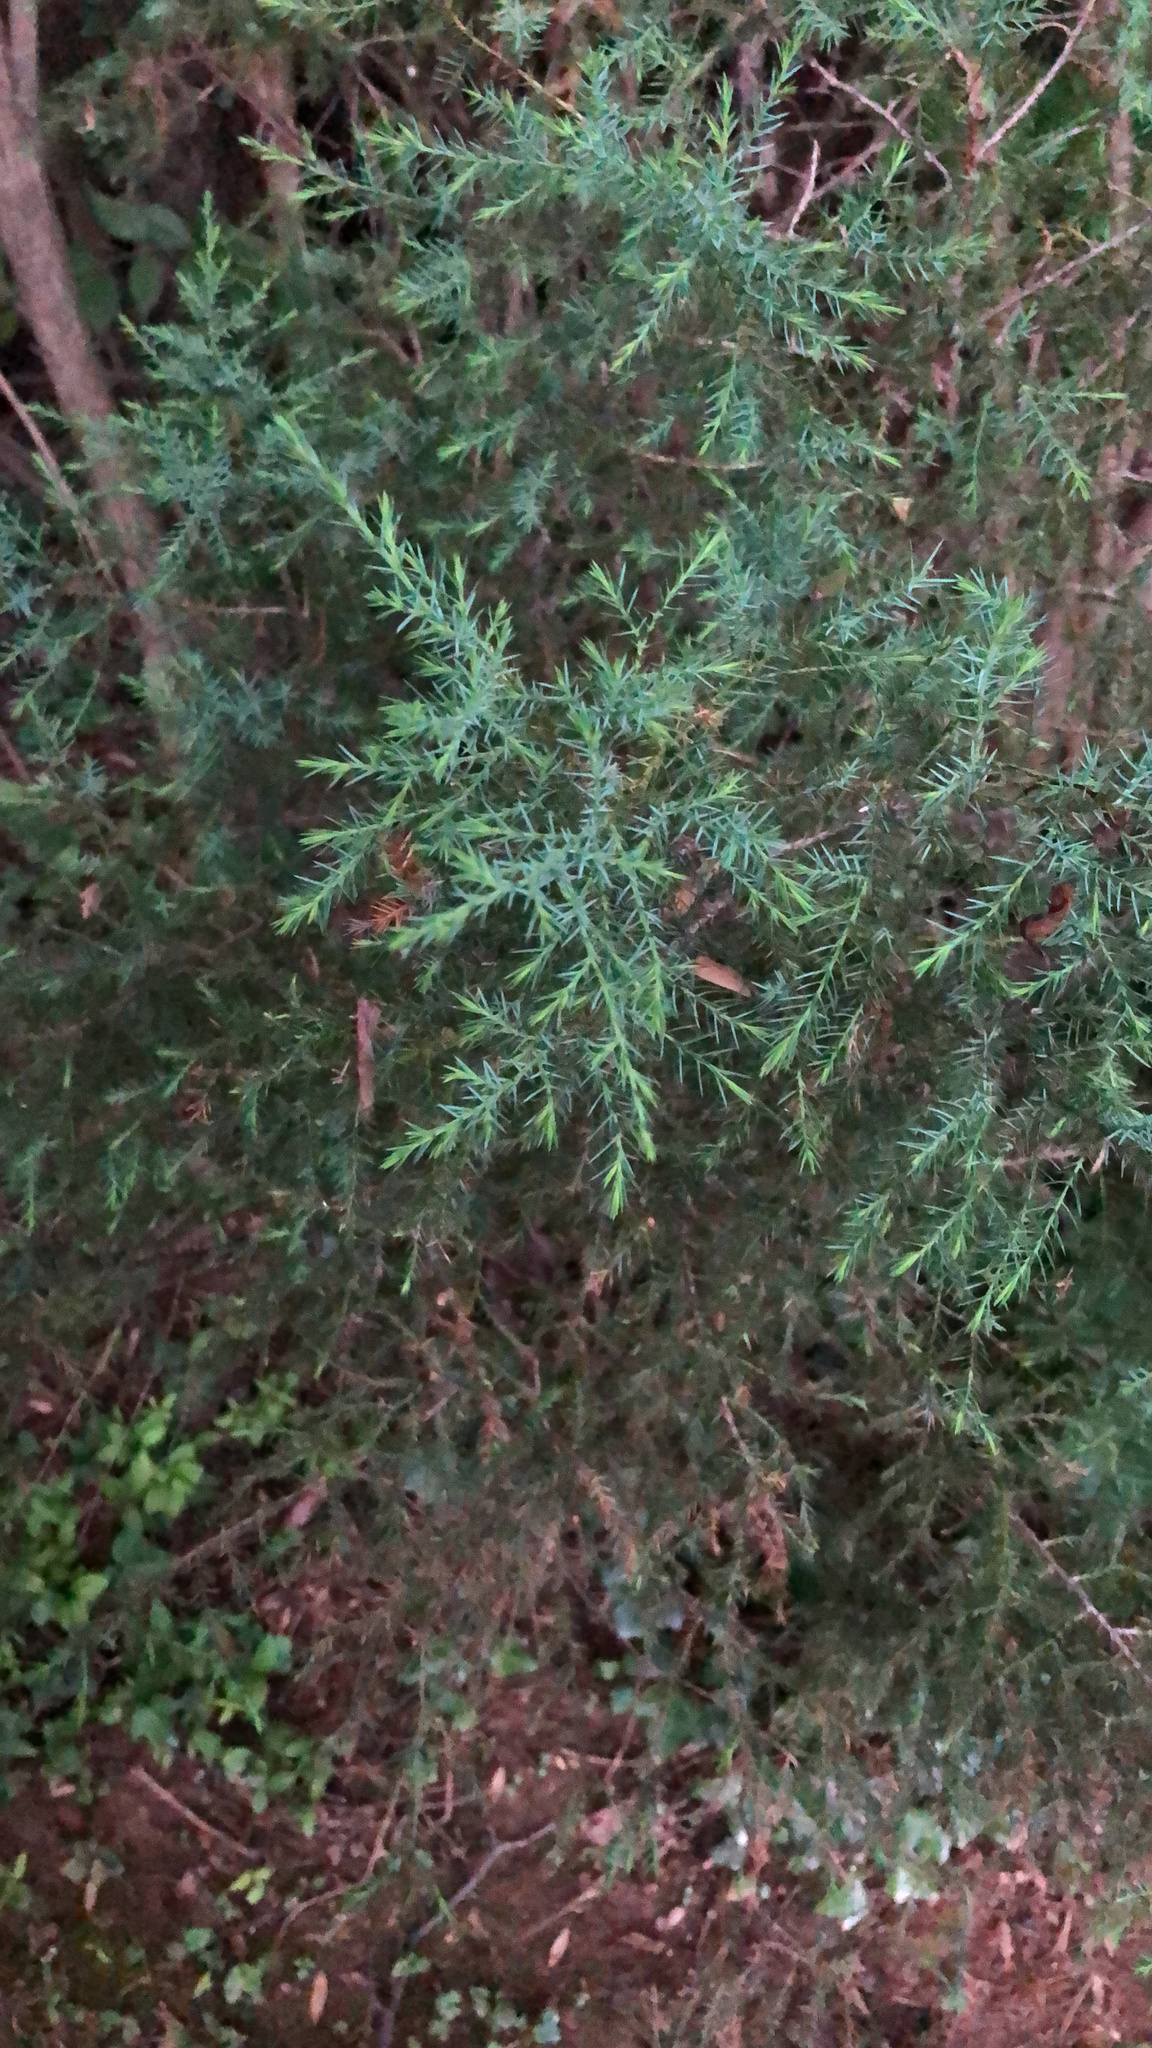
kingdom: Plantae
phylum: Tracheophyta
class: Pinopsida
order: Pinales
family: Cupressaceae
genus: Juniperus
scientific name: Juniperus virginiana
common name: Red juniper
